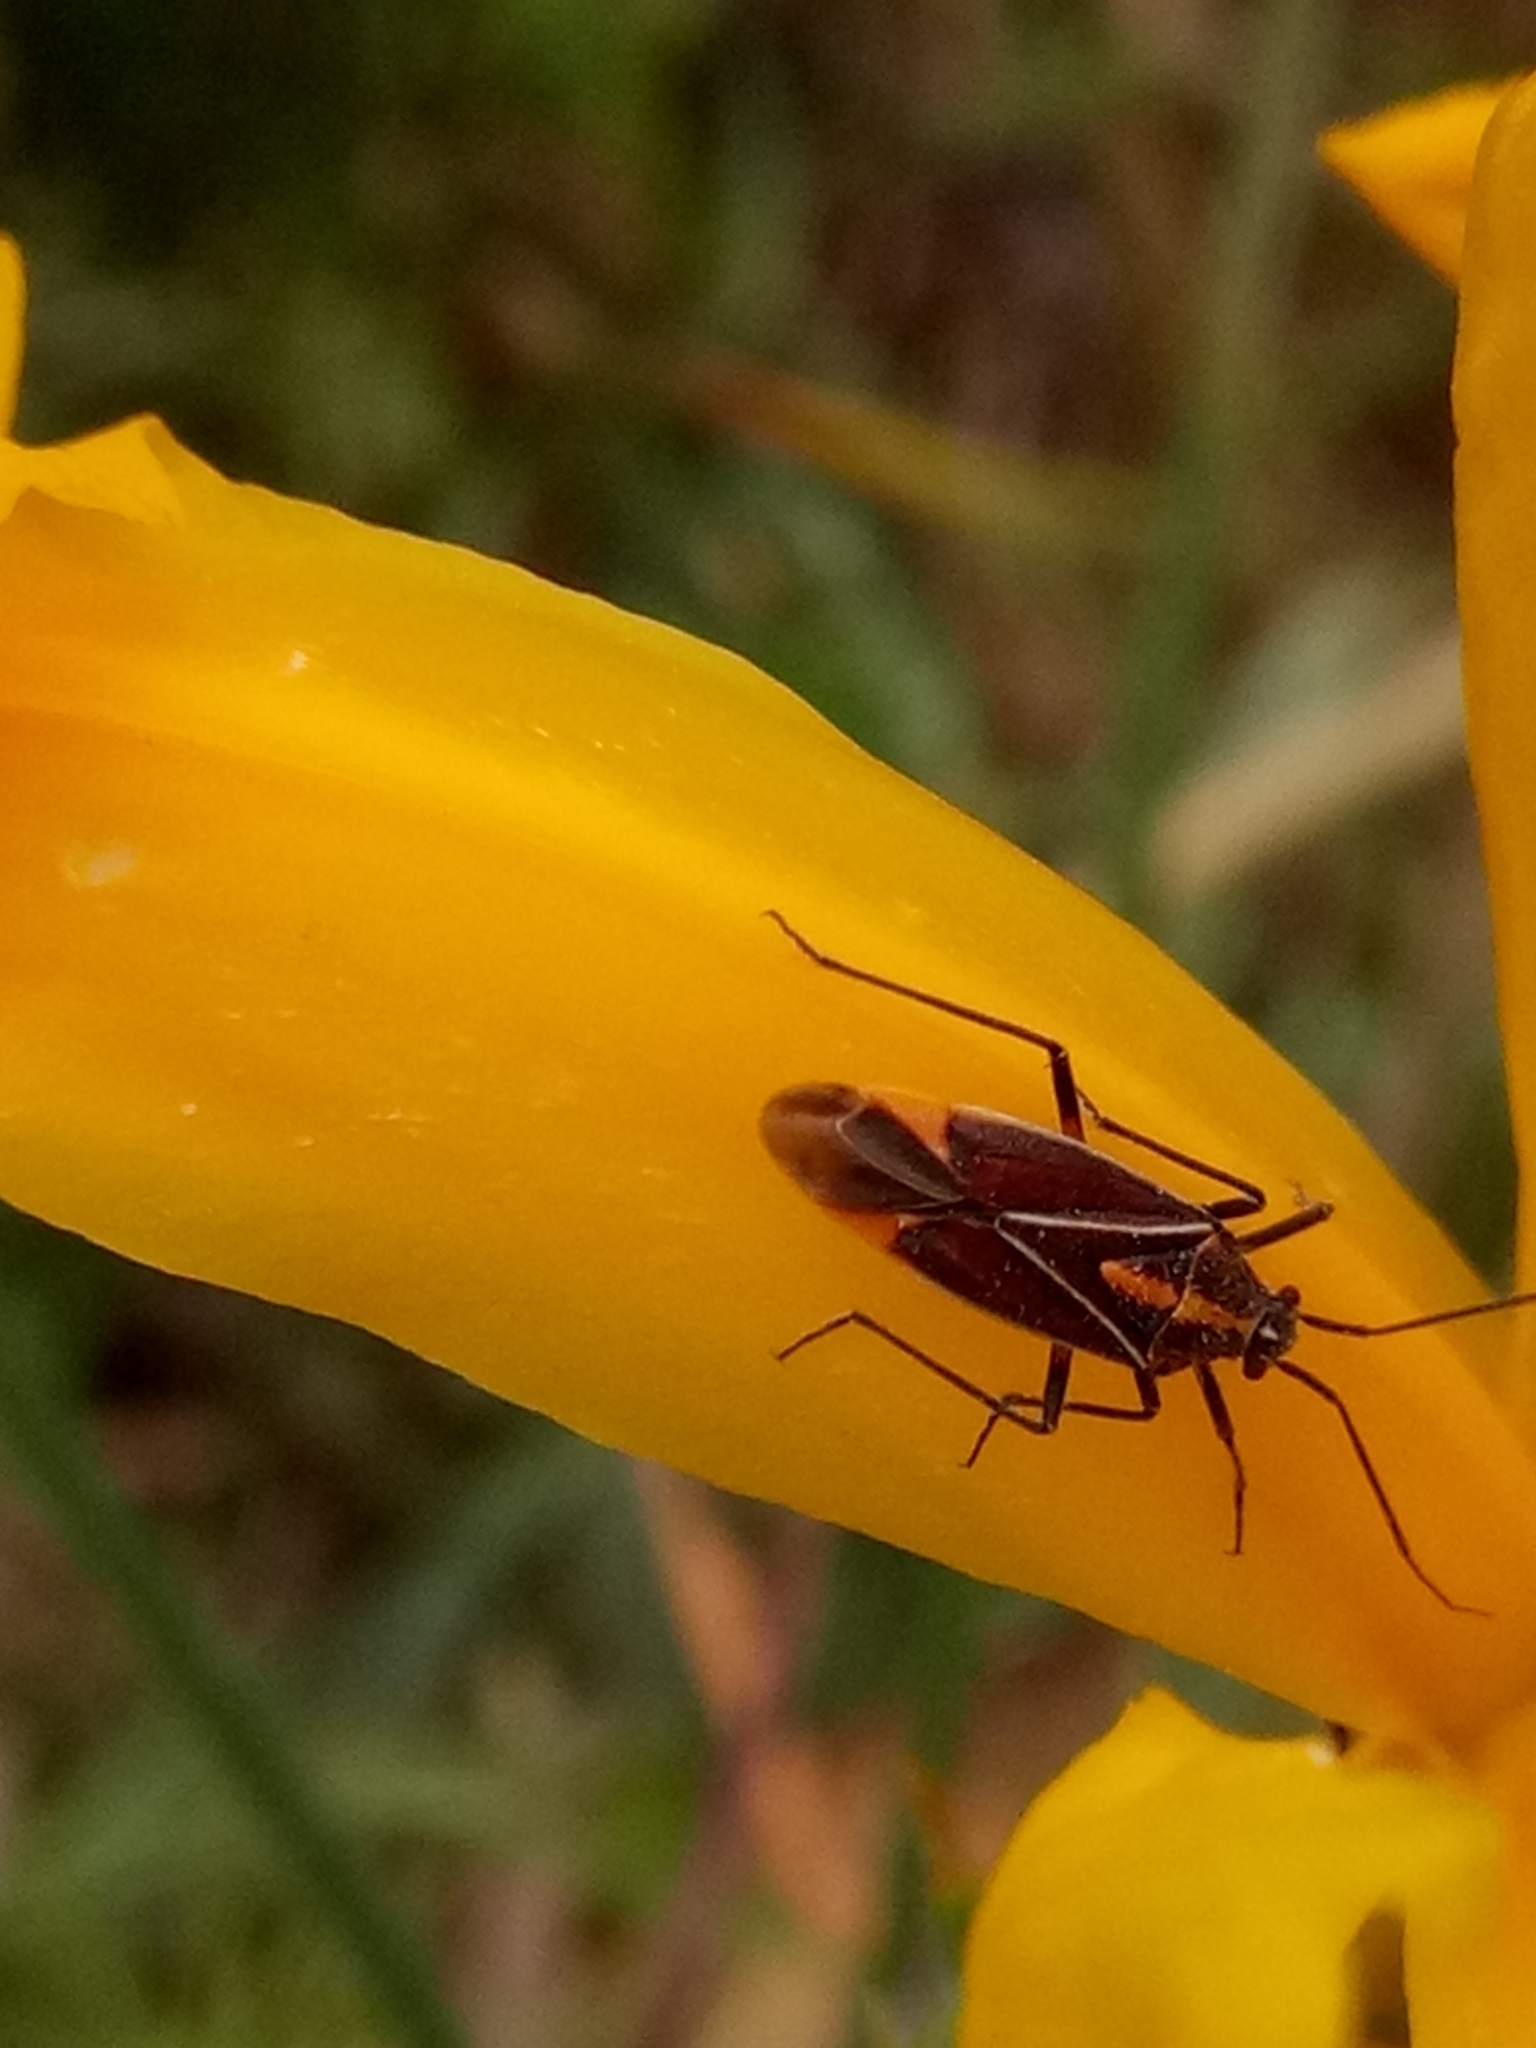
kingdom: Animalia
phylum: Arthropoda
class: Insecta
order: Hemiptera
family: Miridae
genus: Horistus
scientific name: Horistus orientalis
